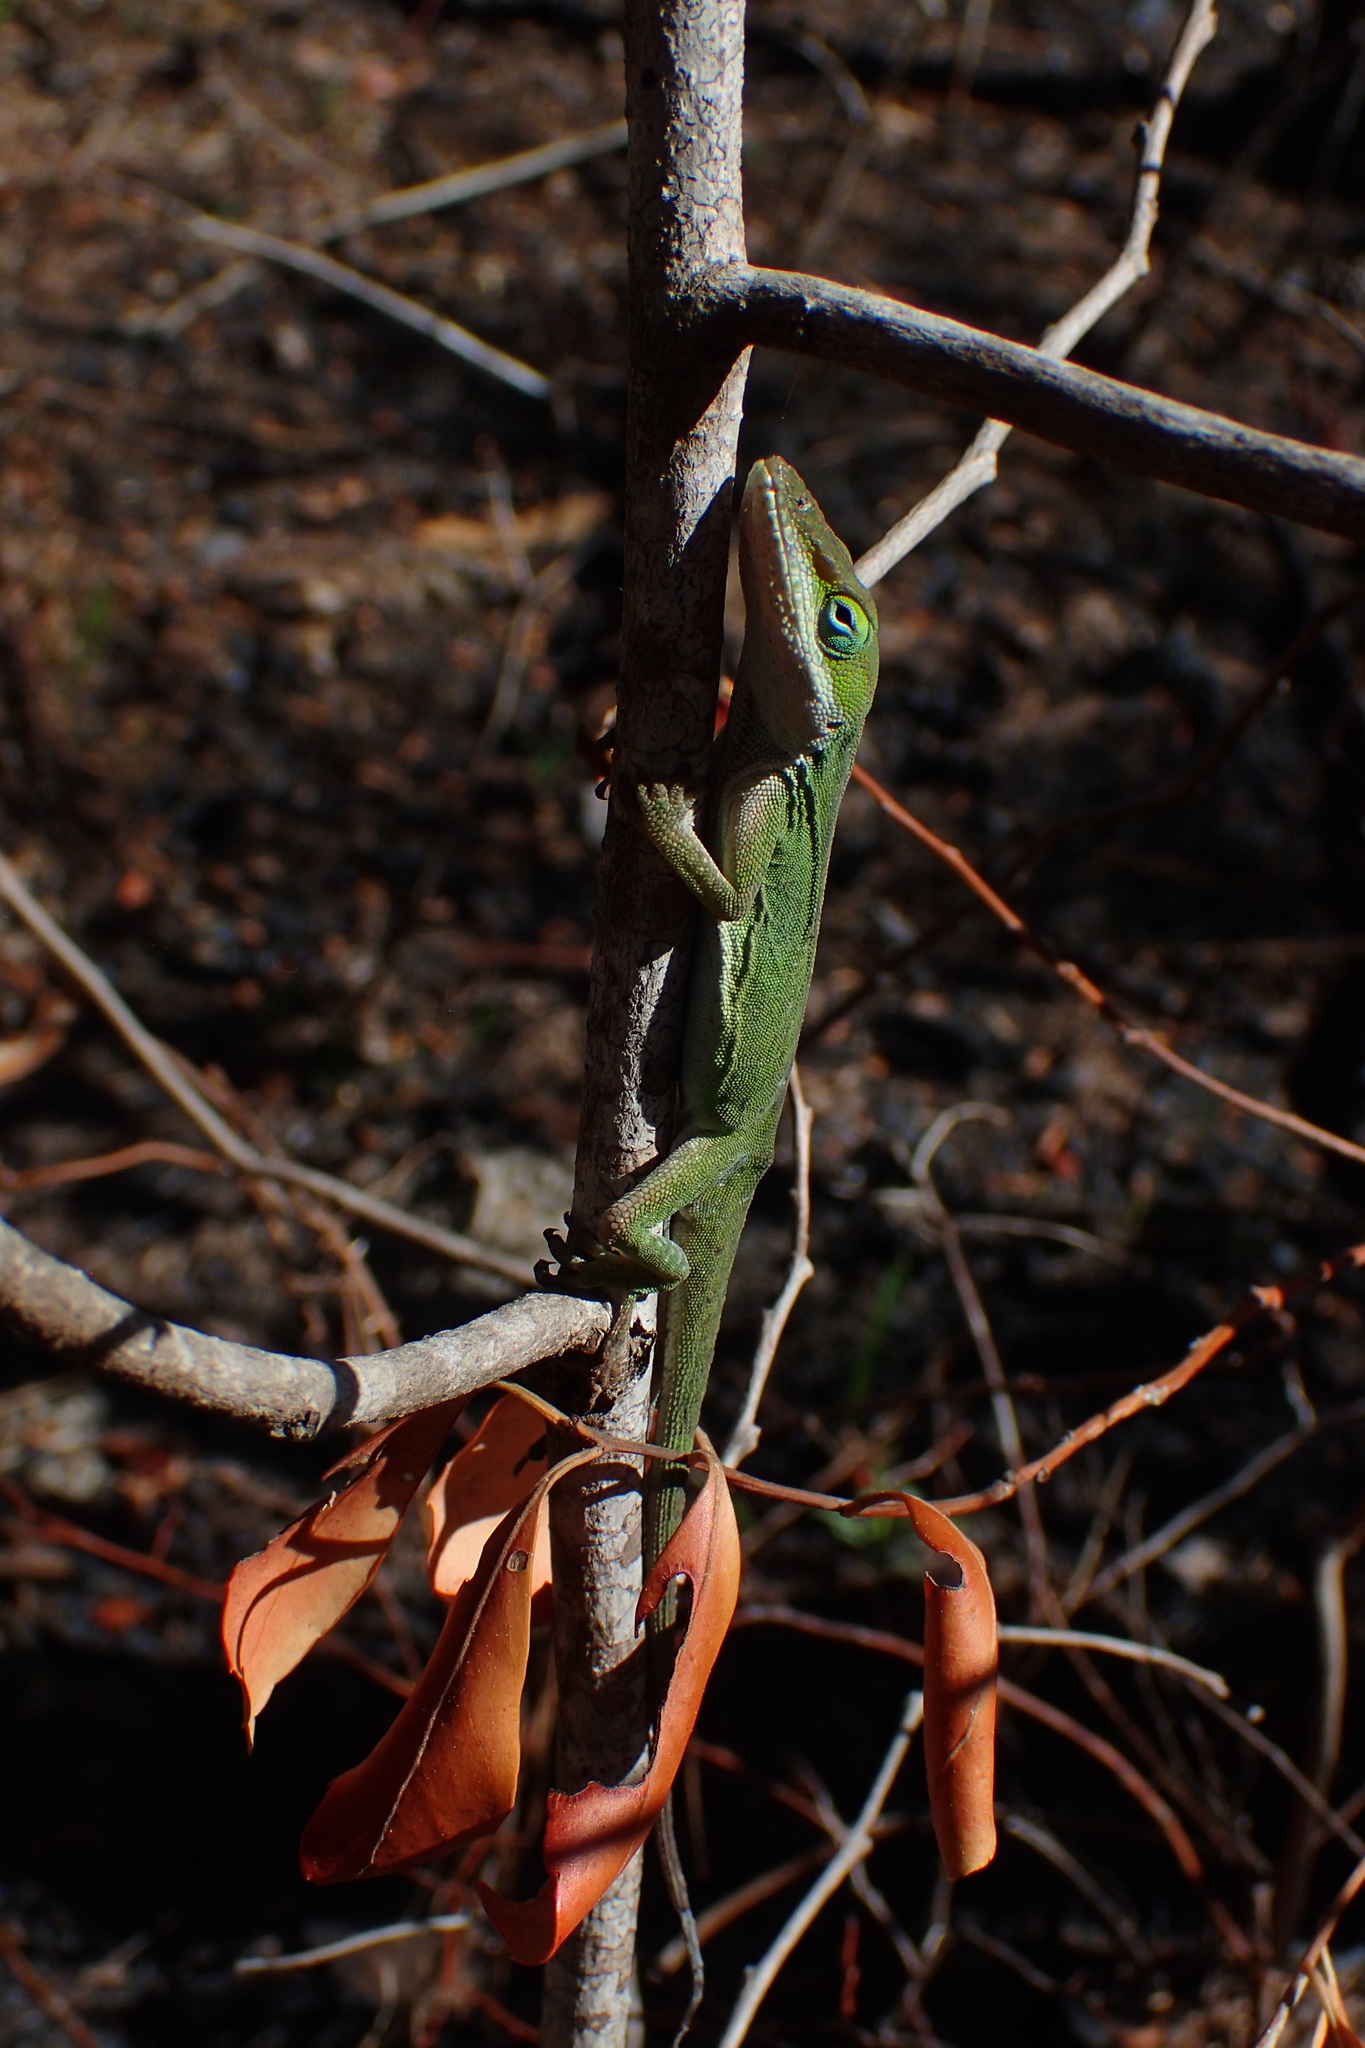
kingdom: Animalia
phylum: Chordata
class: Squamata
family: Dactyloidae
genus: Anolis
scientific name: Anolis carolinensis
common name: Green anole
